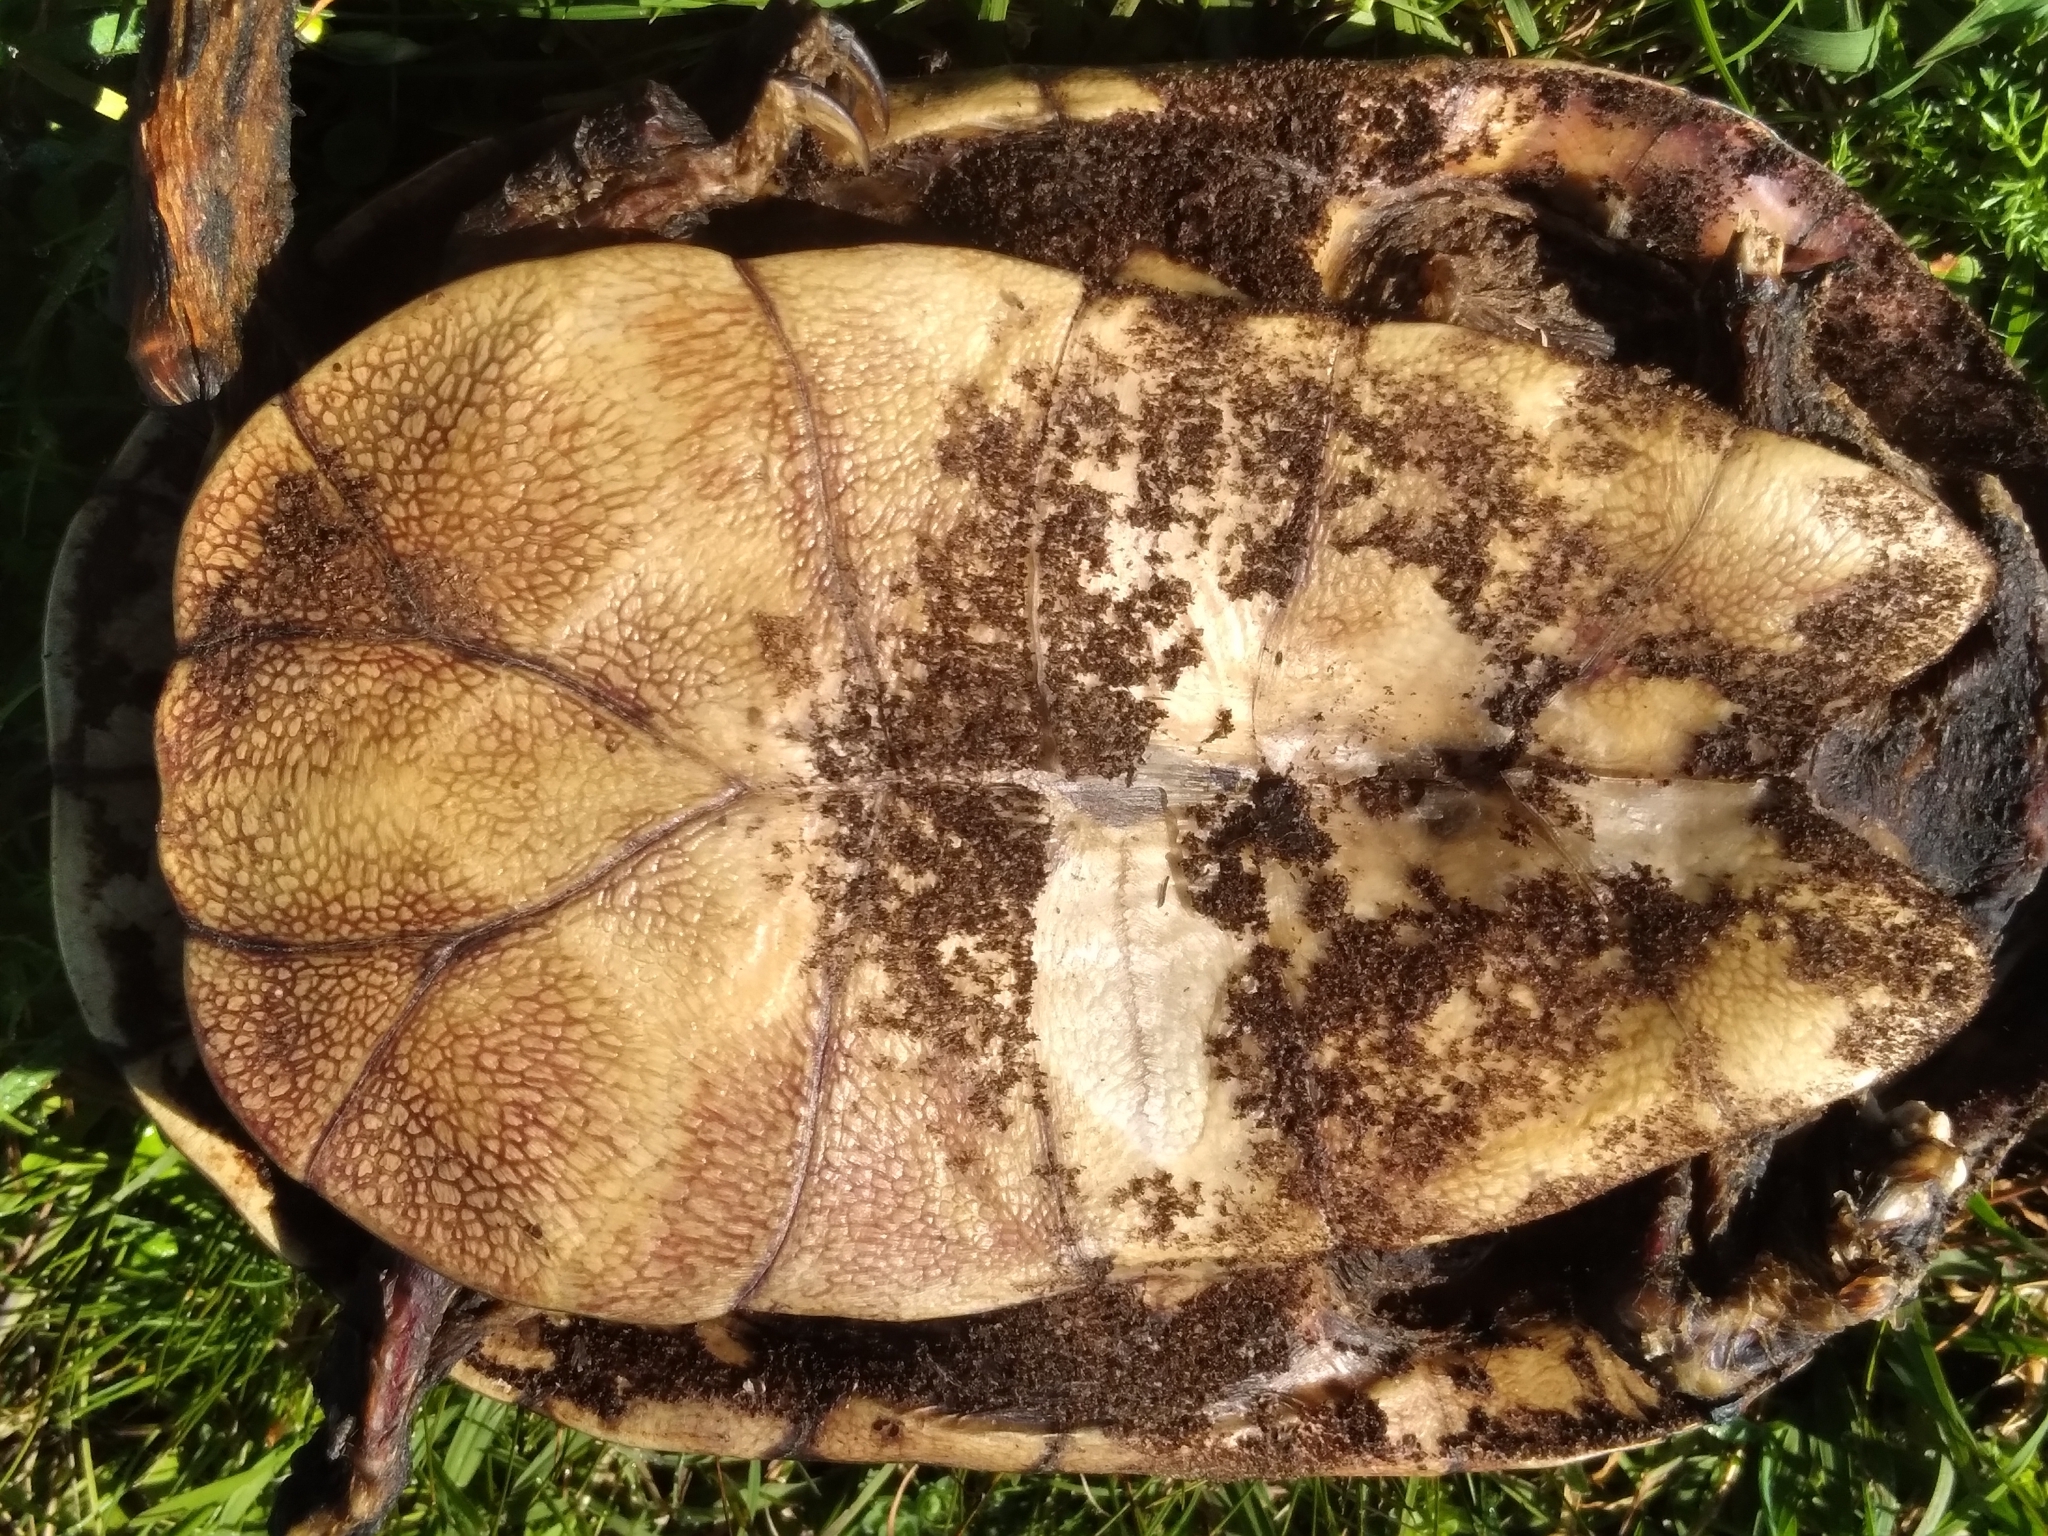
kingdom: Animalia
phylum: Chordata
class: Testudines
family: Chelidae
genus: Hydromedusa
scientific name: Hydromedusa tectifera
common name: Argentine snake-necked turtle
